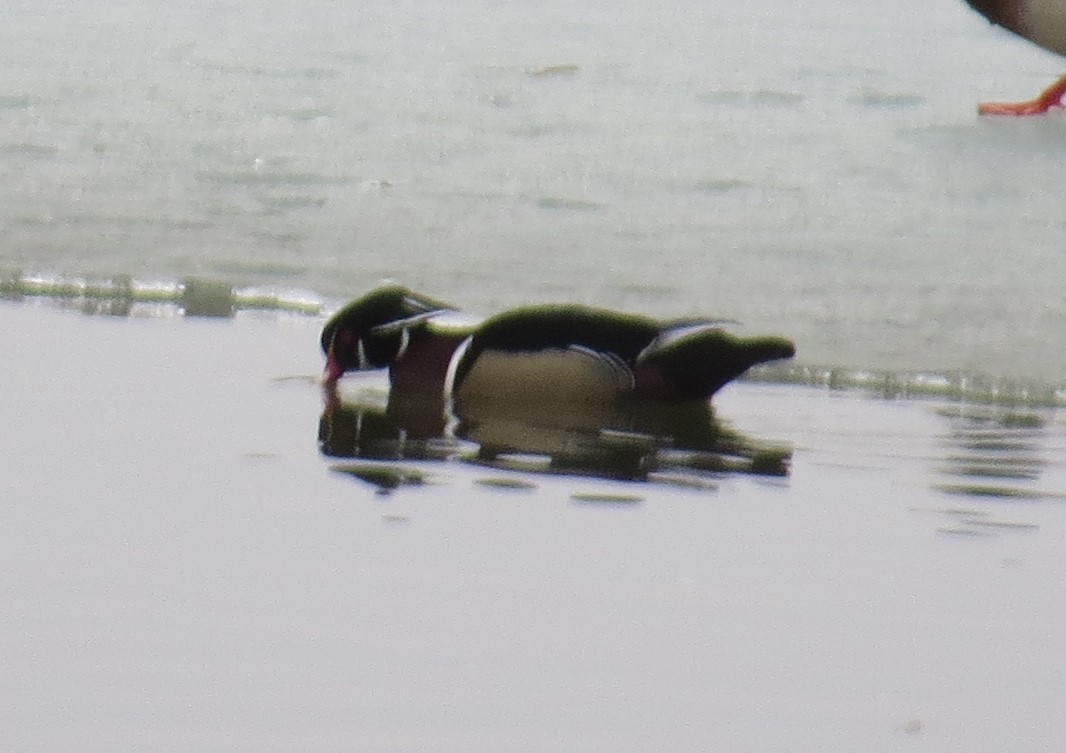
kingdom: Animalia
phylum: Chordata
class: Aves
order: Anseriformes
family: Anatidae
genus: Aix
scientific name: Aix sponsa
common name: Wood duck
